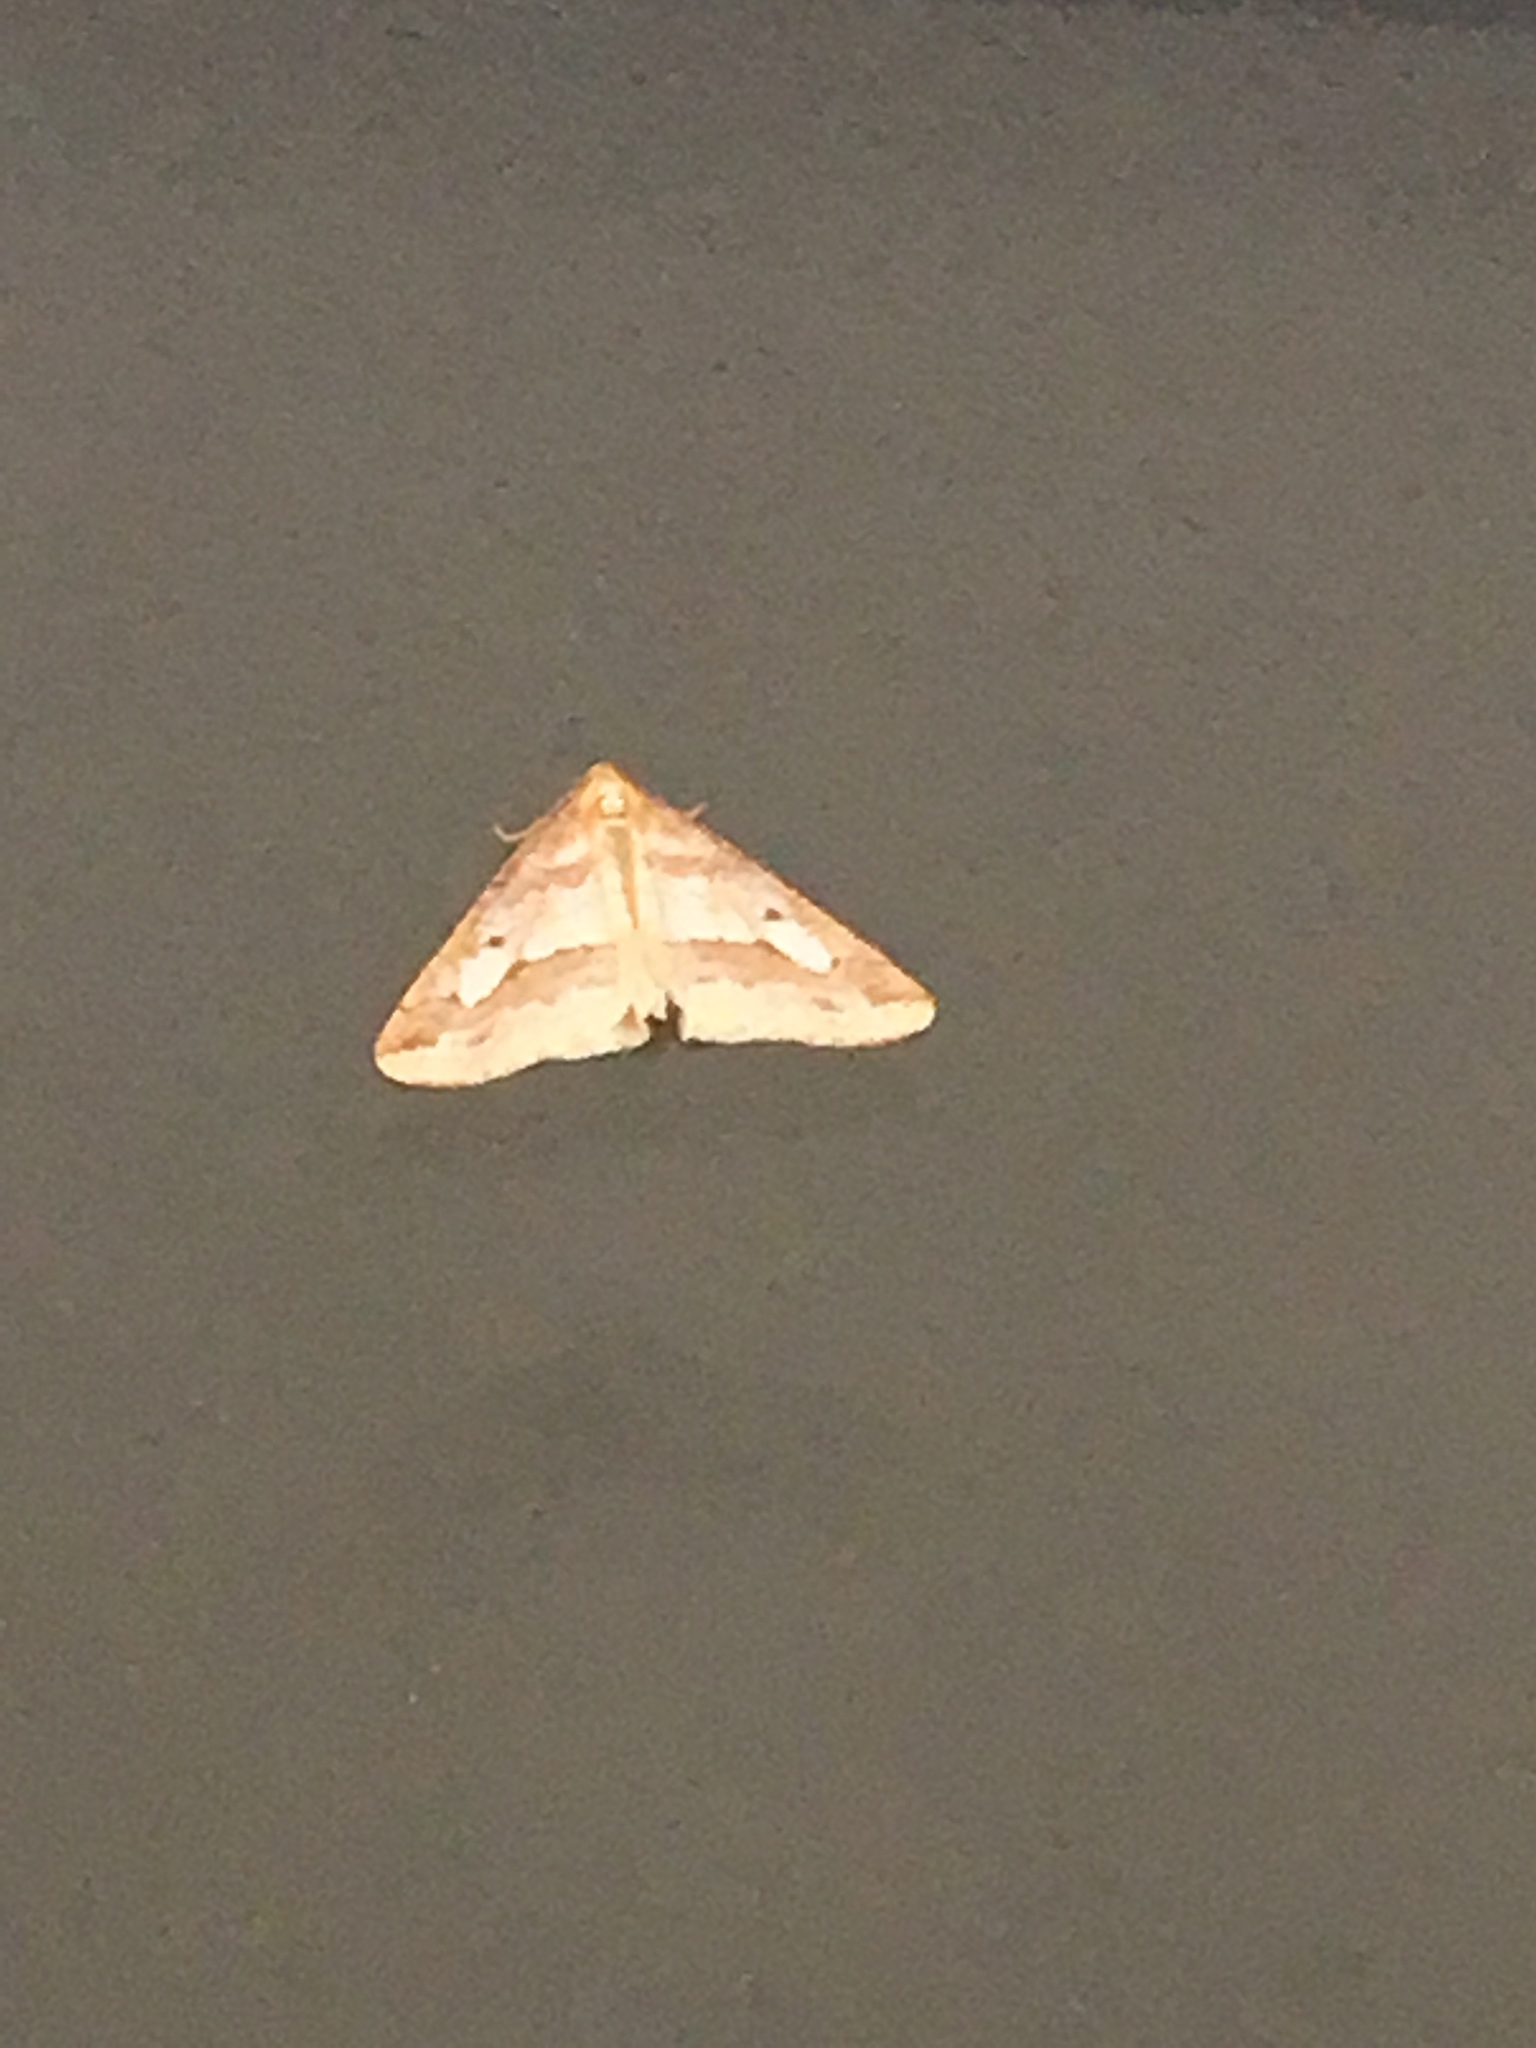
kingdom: Animalia
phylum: Arthropoda
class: Insecta
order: Lepidoptera
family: Geometridae
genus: Erannis
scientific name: Erannis tiliaria
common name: Linden looper
